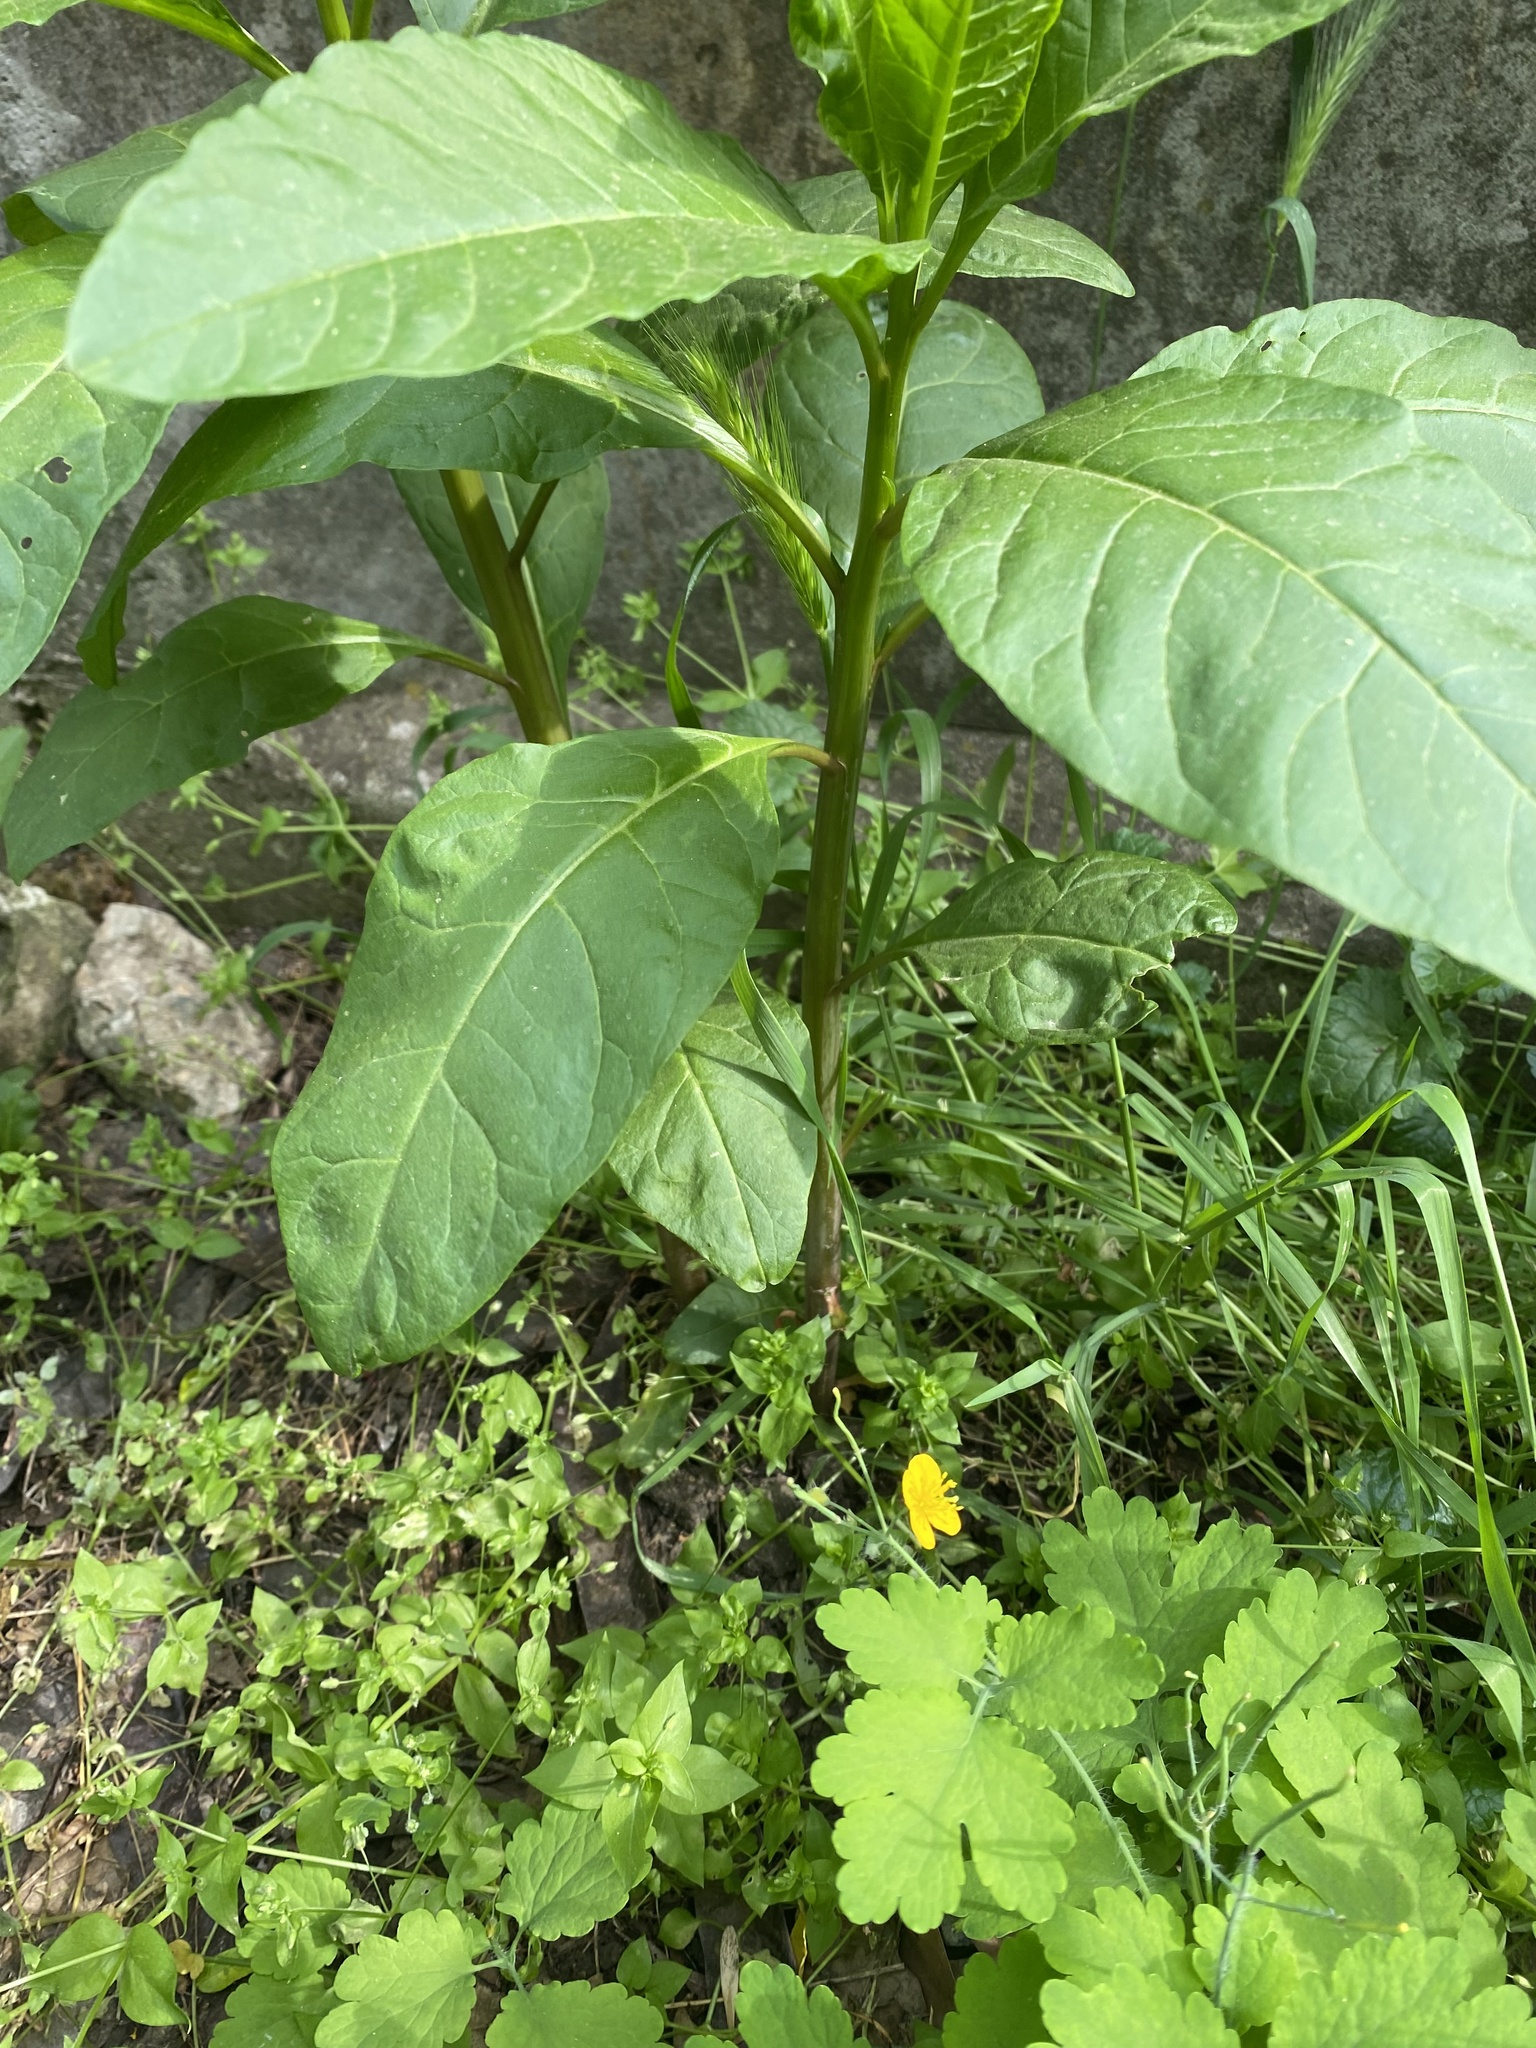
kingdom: Plantae
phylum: Tracheophyta
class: Magnoliopsida
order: Caryophyllales
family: Phytolaccaceae
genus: Phytolacca
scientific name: Phytolacca americana
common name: American pokeweed
